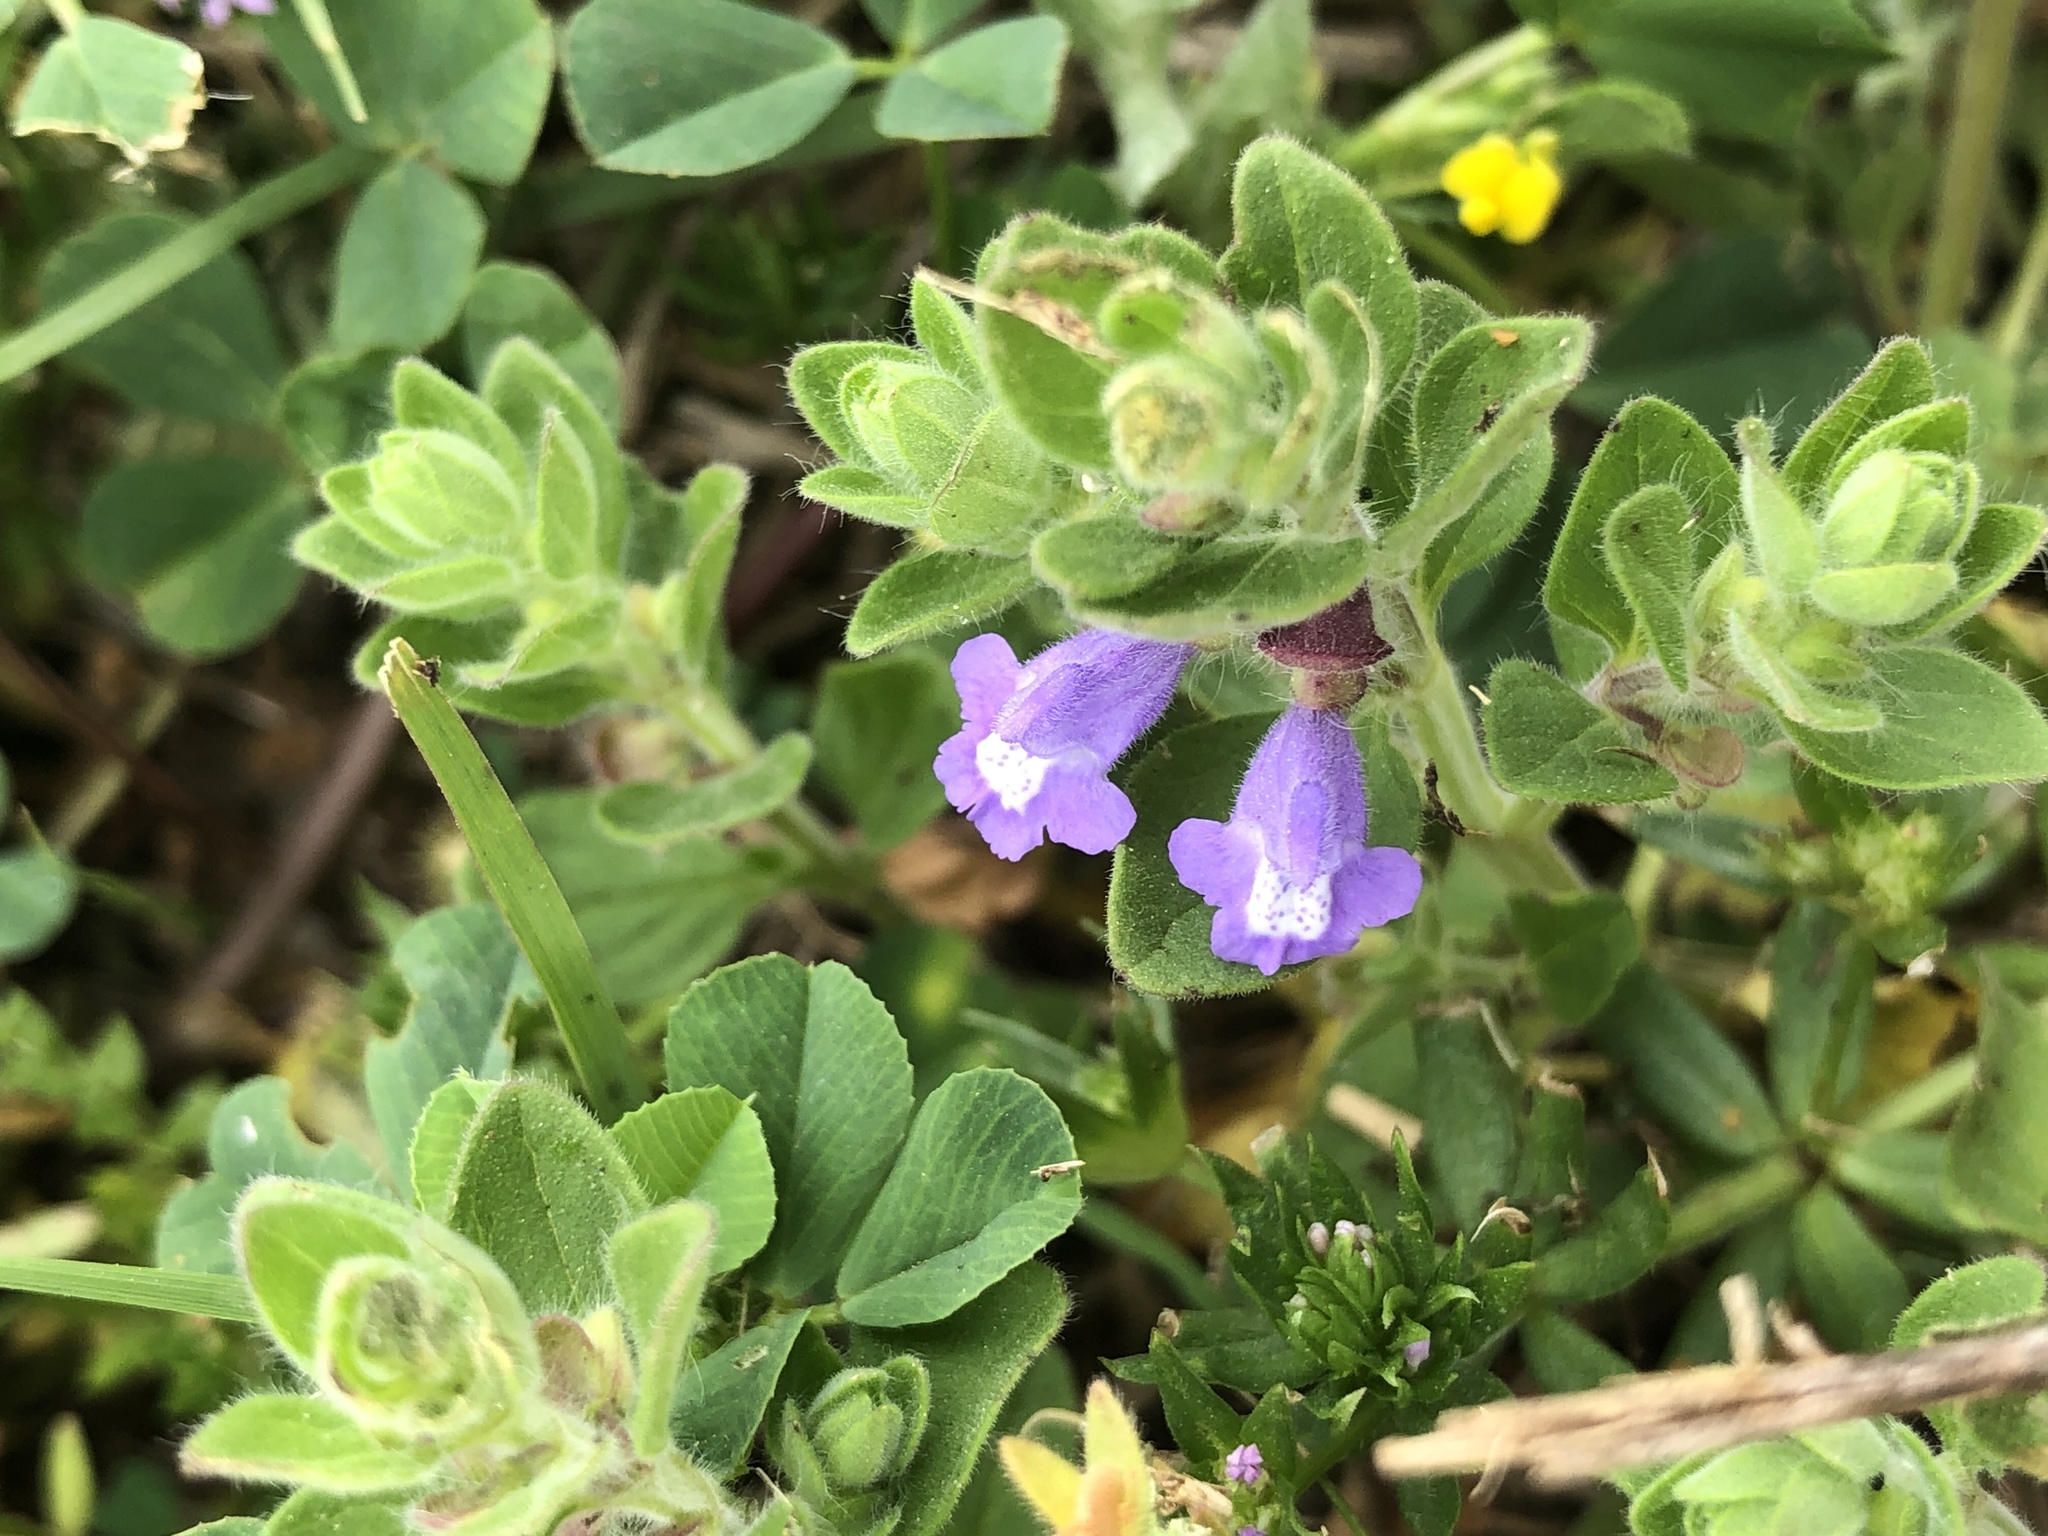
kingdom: Plantae
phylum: Tracheophyta
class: Magnoliopsida
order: Lamiales
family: Lamiaceae
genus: Scutellaria
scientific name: Scutellaria drummondii
